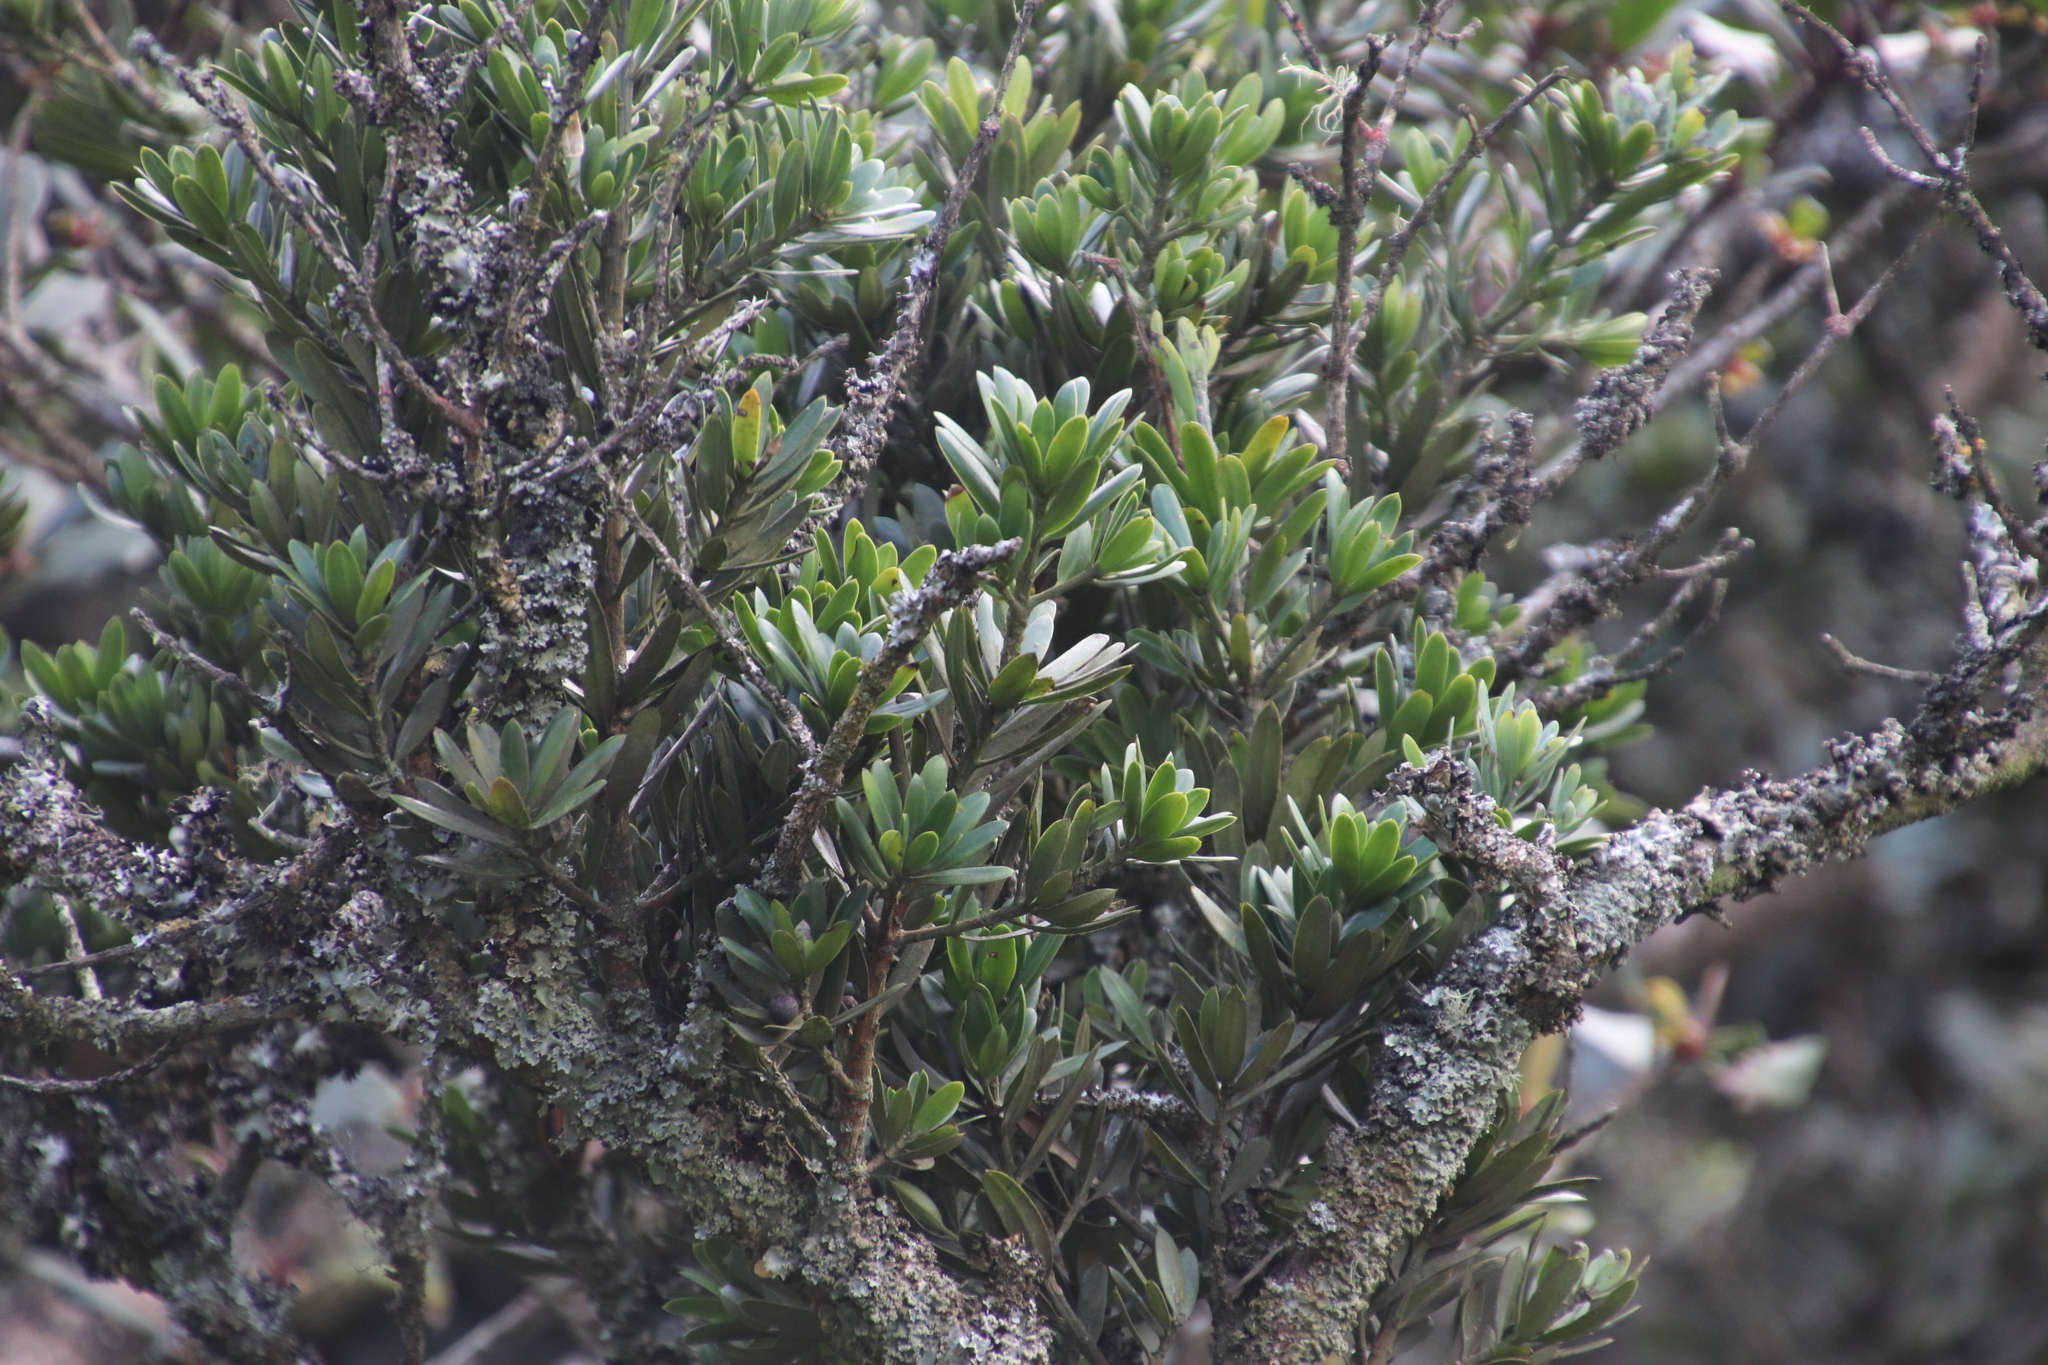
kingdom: Plantae
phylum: Tracheophyta
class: Pinopsida
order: Pinales
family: Podocarpaceae
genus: Podocarpus
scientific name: Podocarpus latifolius
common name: True yellowwood
